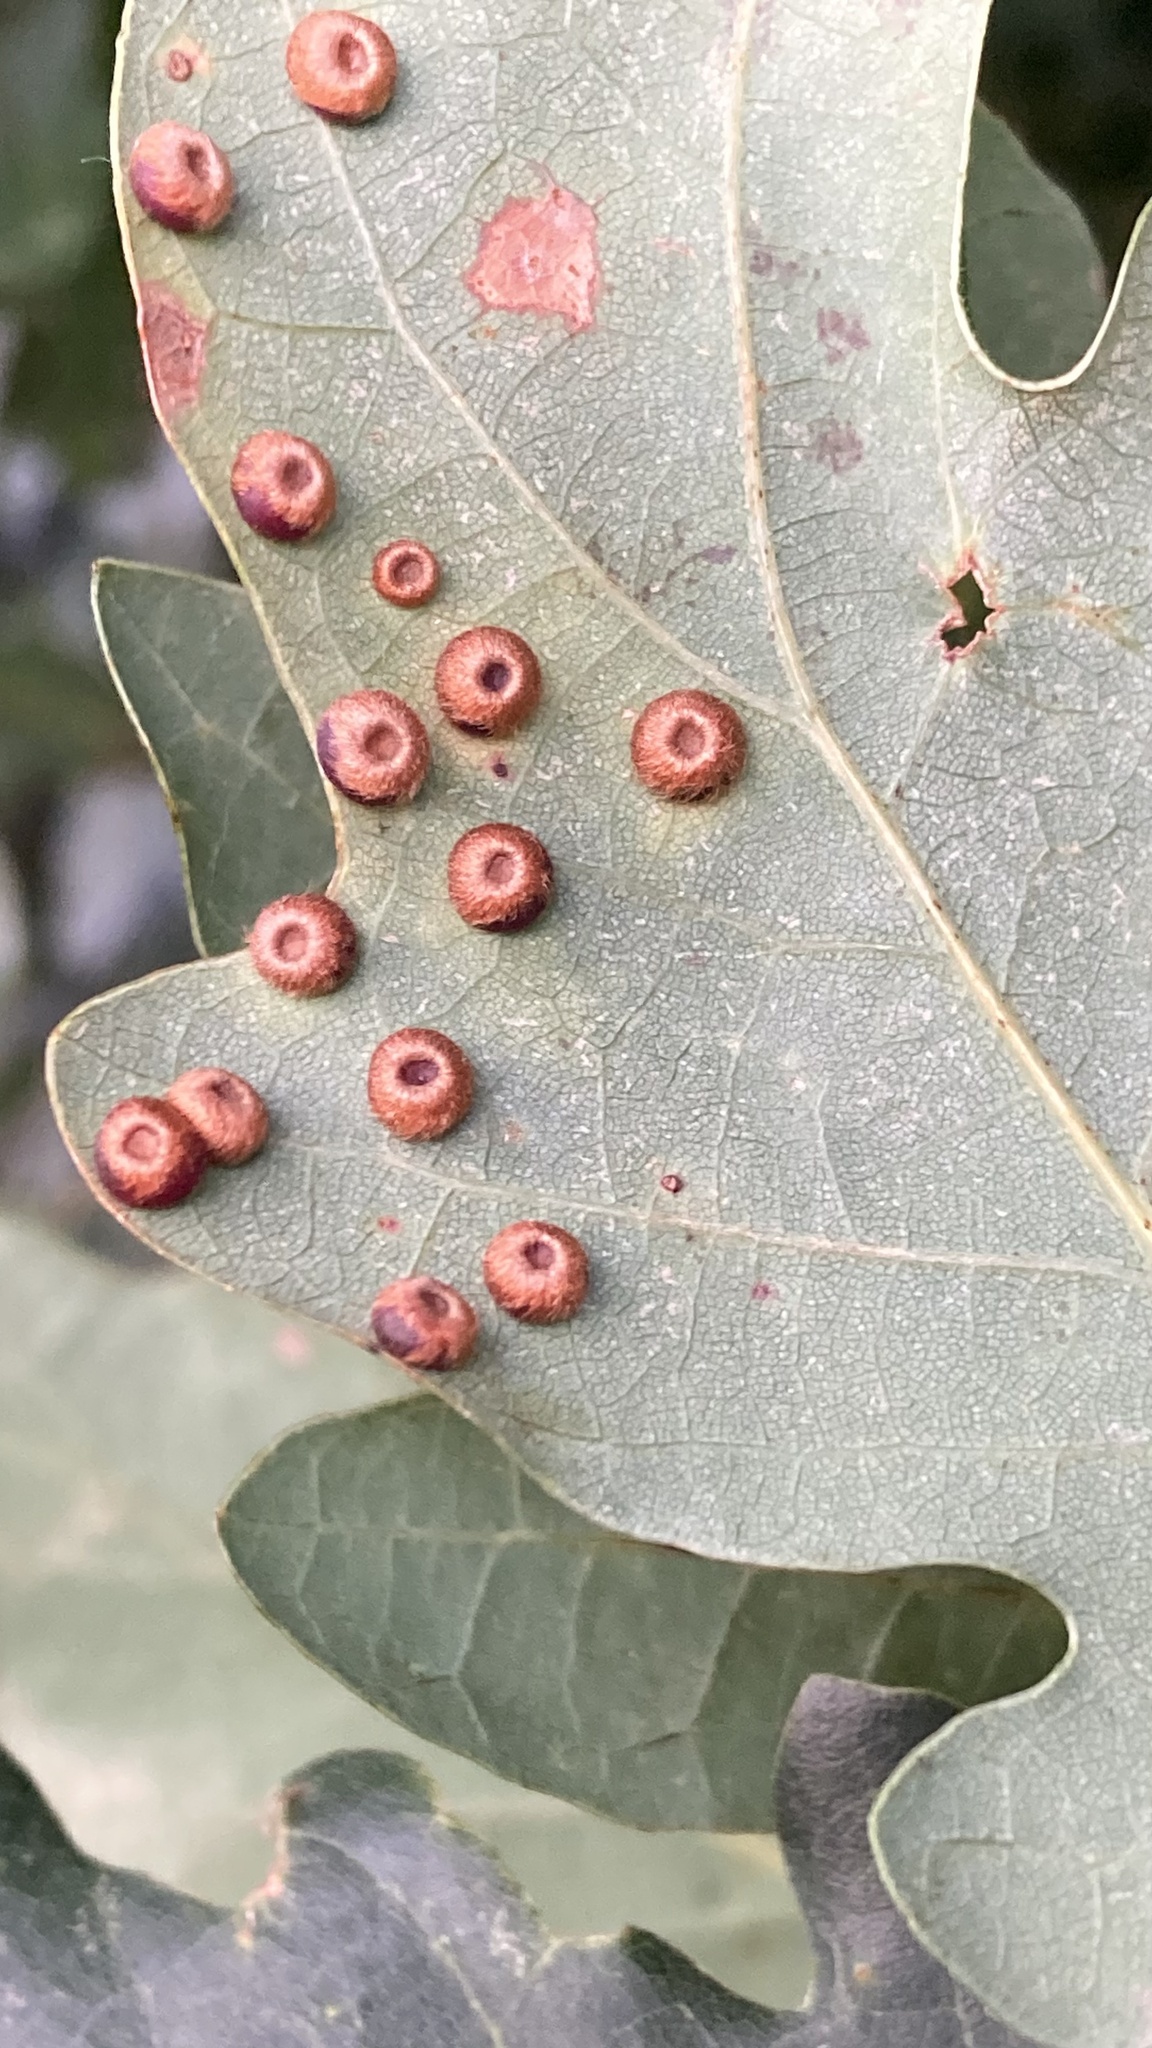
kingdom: Animalia
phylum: Arthropoda
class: Insecta
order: Hymenoptera
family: Cynipidae
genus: Neuroterus
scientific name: Neuroterus numismalis
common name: Silk-button spangle gall
